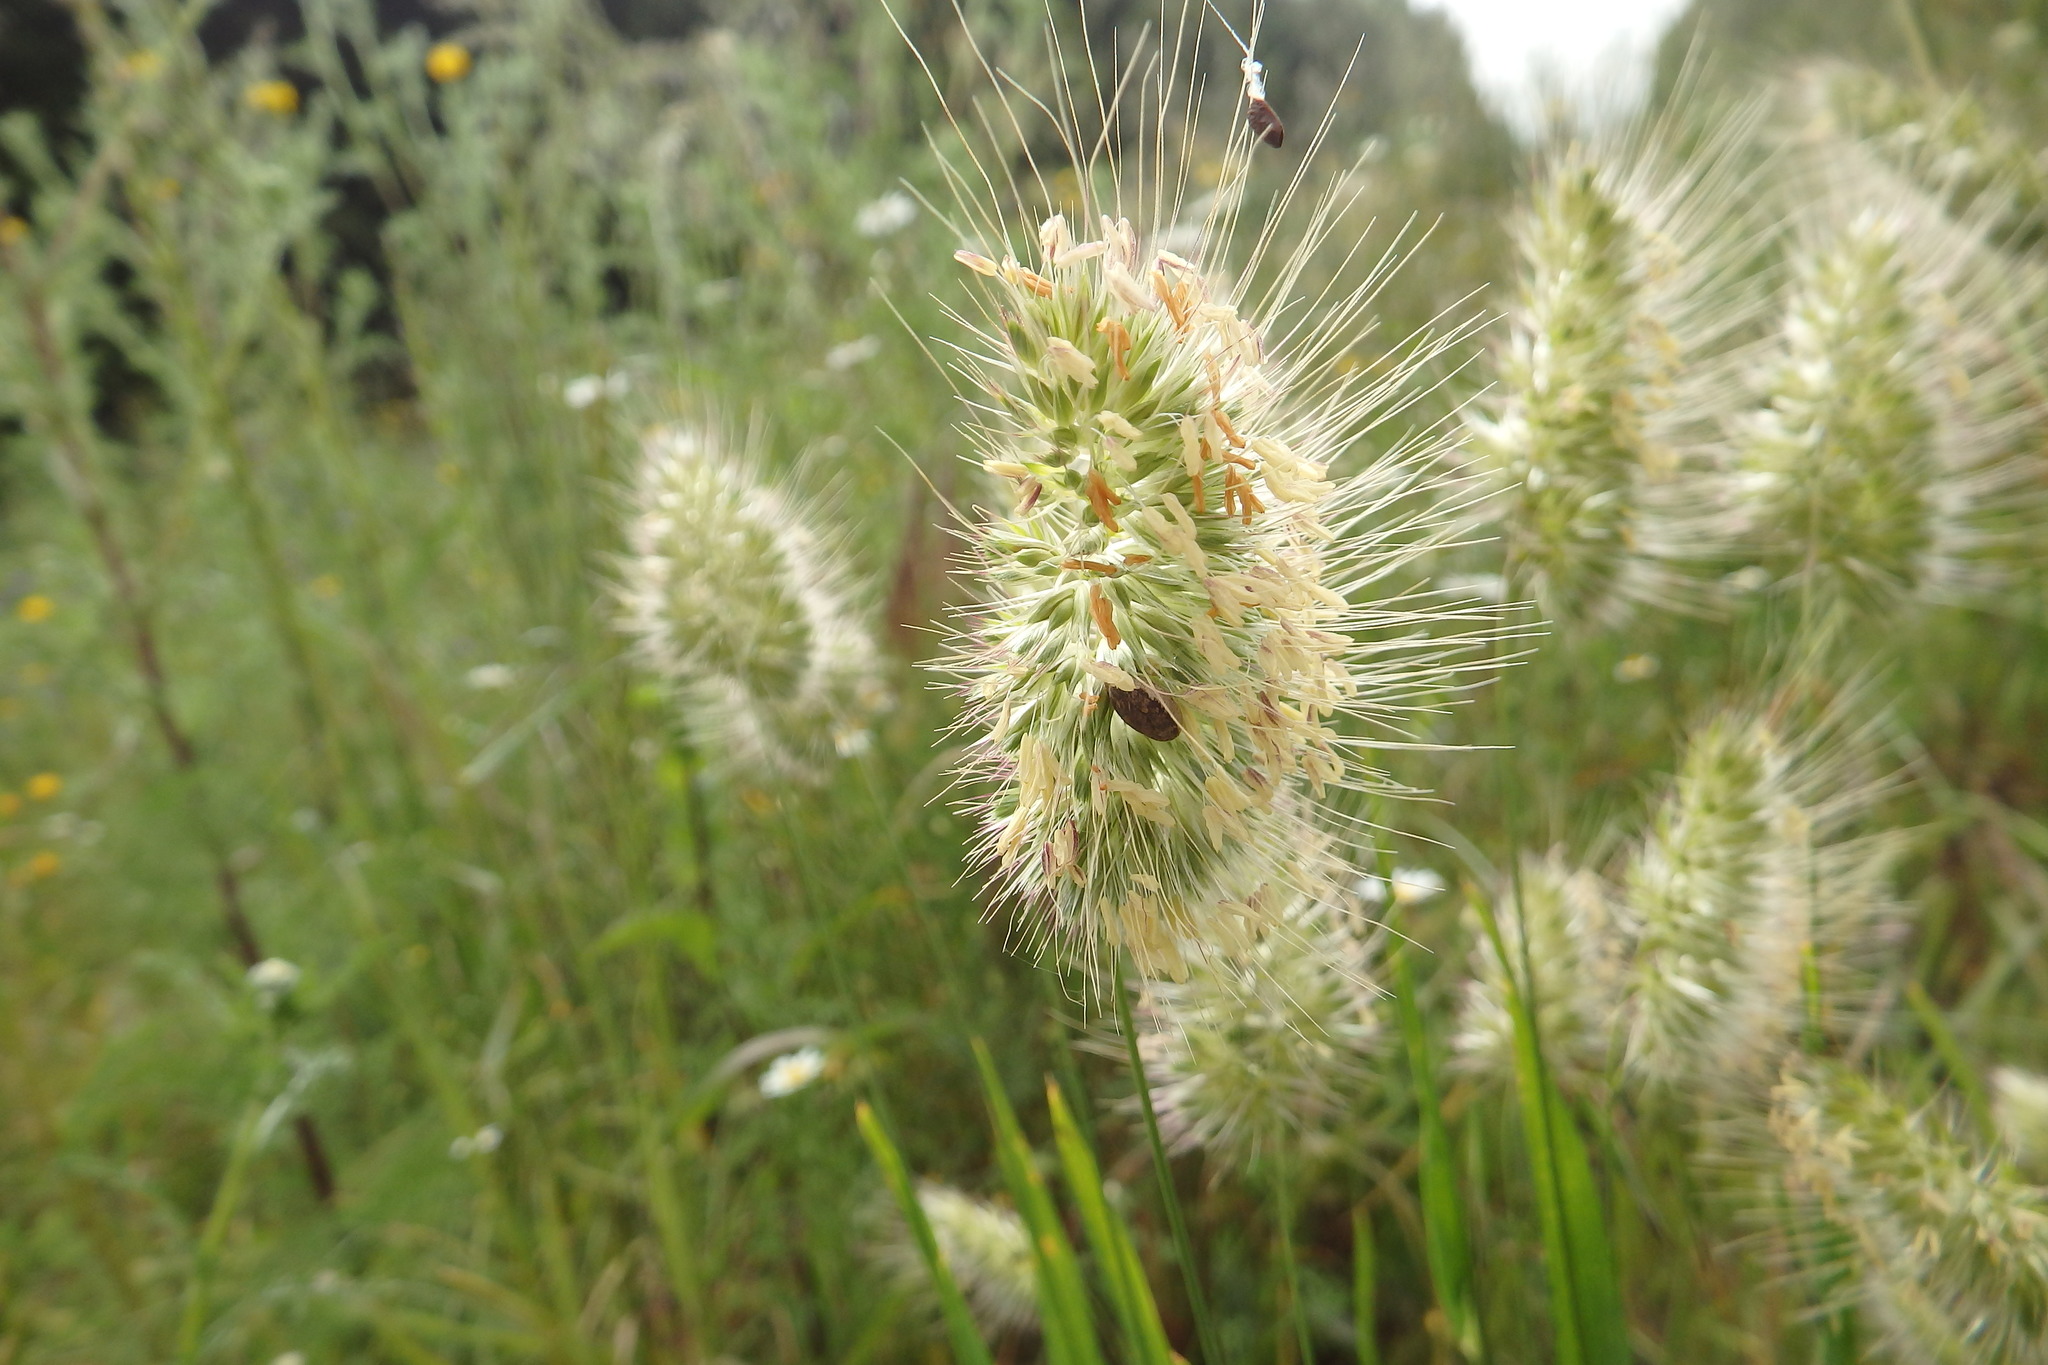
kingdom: Plantae
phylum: Tracheophyta
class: Liliopsida
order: Poales
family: Poaceae
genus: Cynosurus
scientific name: Cynosurus echinatus
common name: Rough dog's-tail
